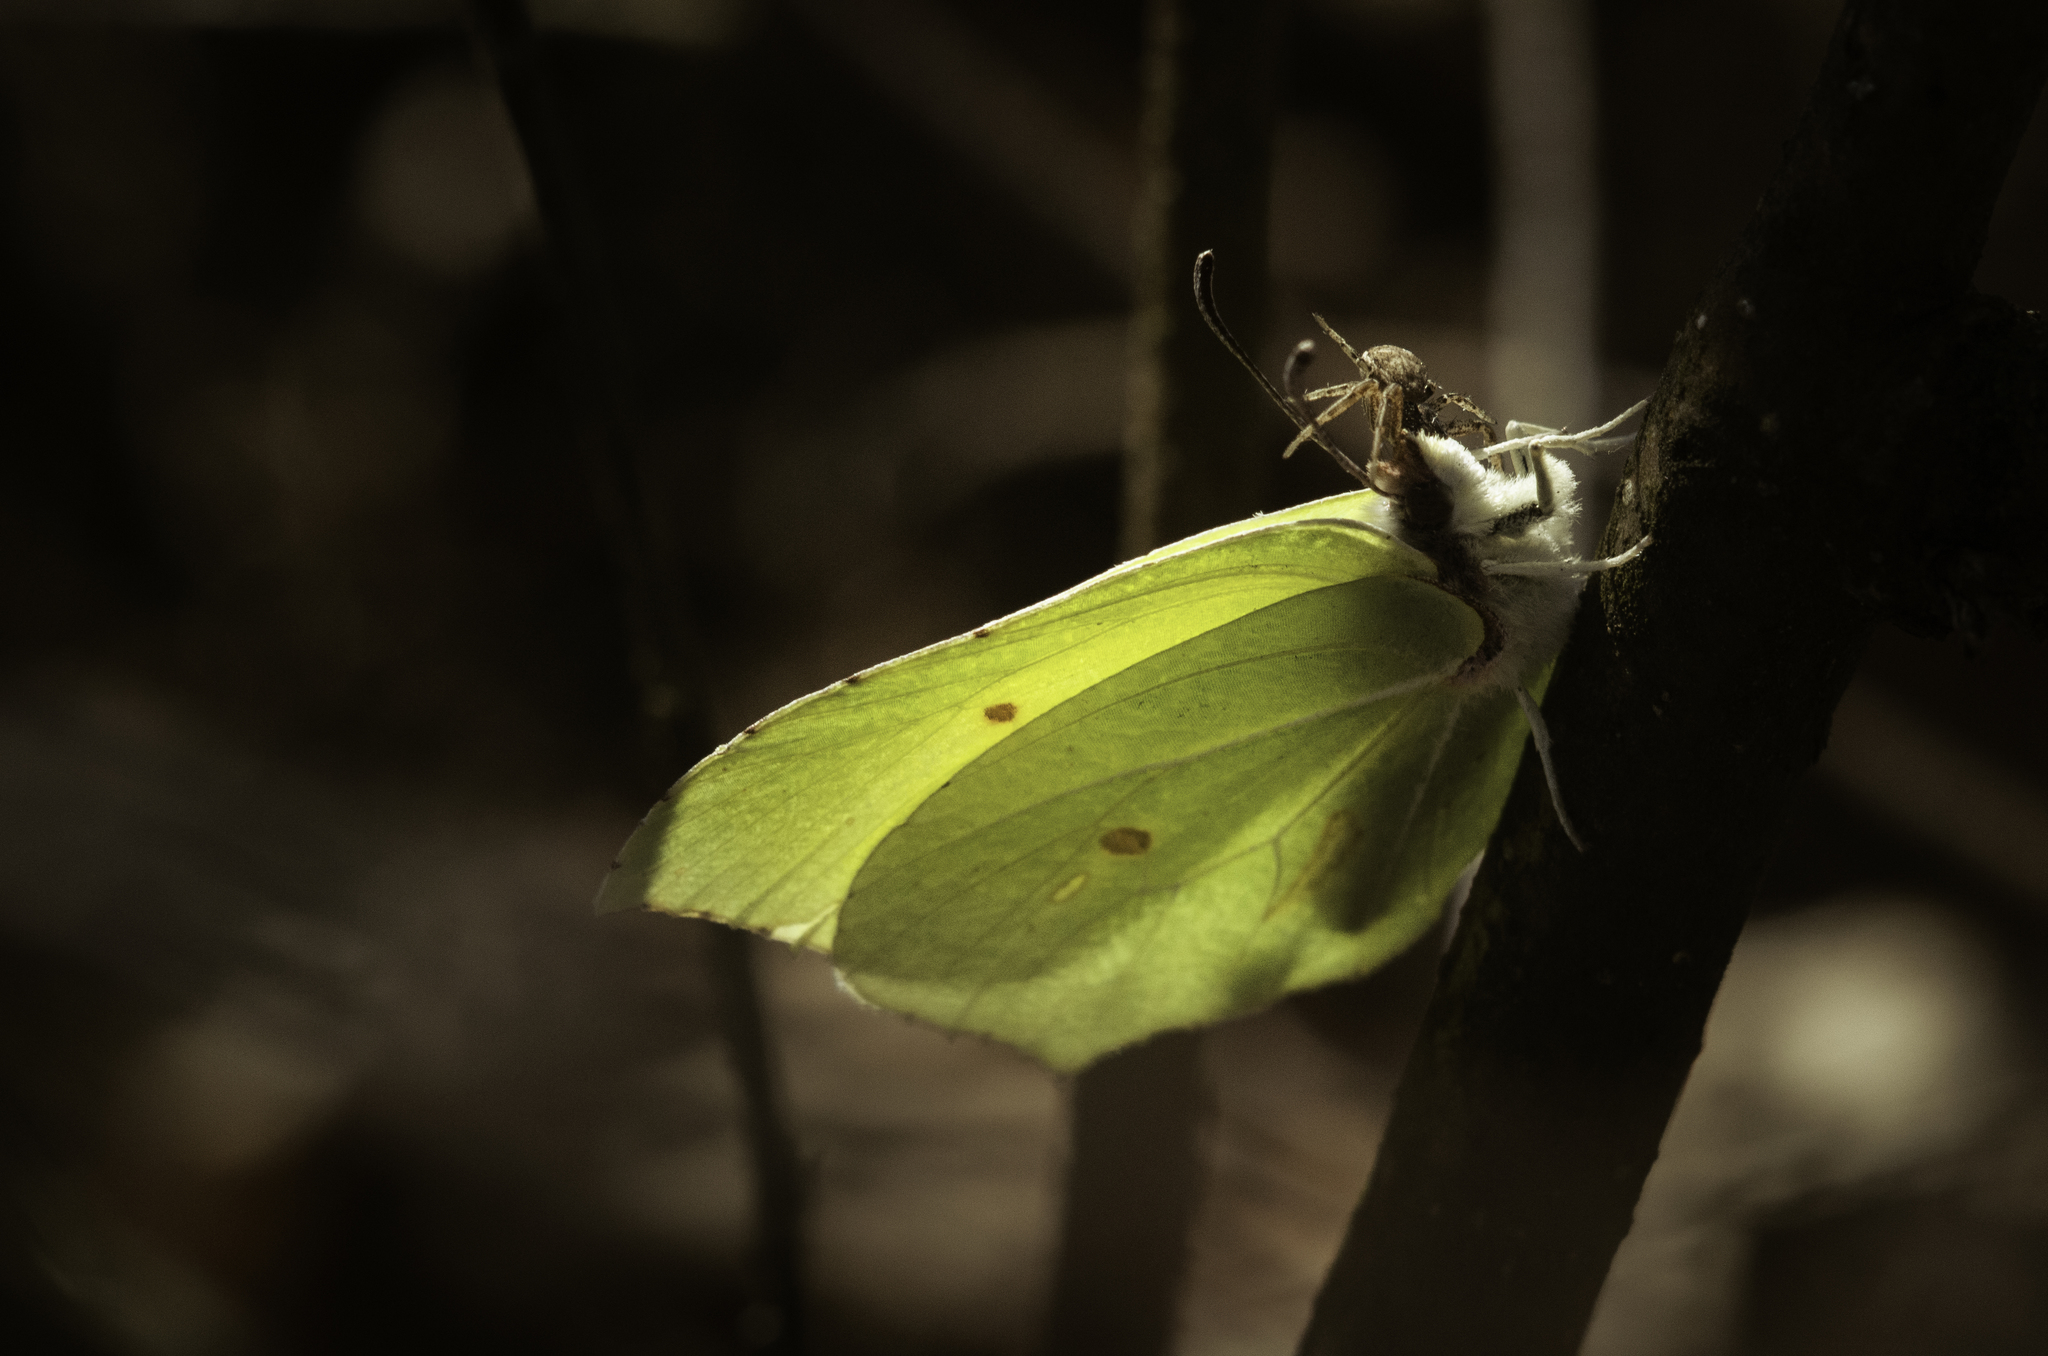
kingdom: Animalia
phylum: Arthropoda
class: Insecta
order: Lepidoptera
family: Pieridae
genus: Gonepteryx
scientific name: Gonepteryx rhamni
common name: Brimstone
